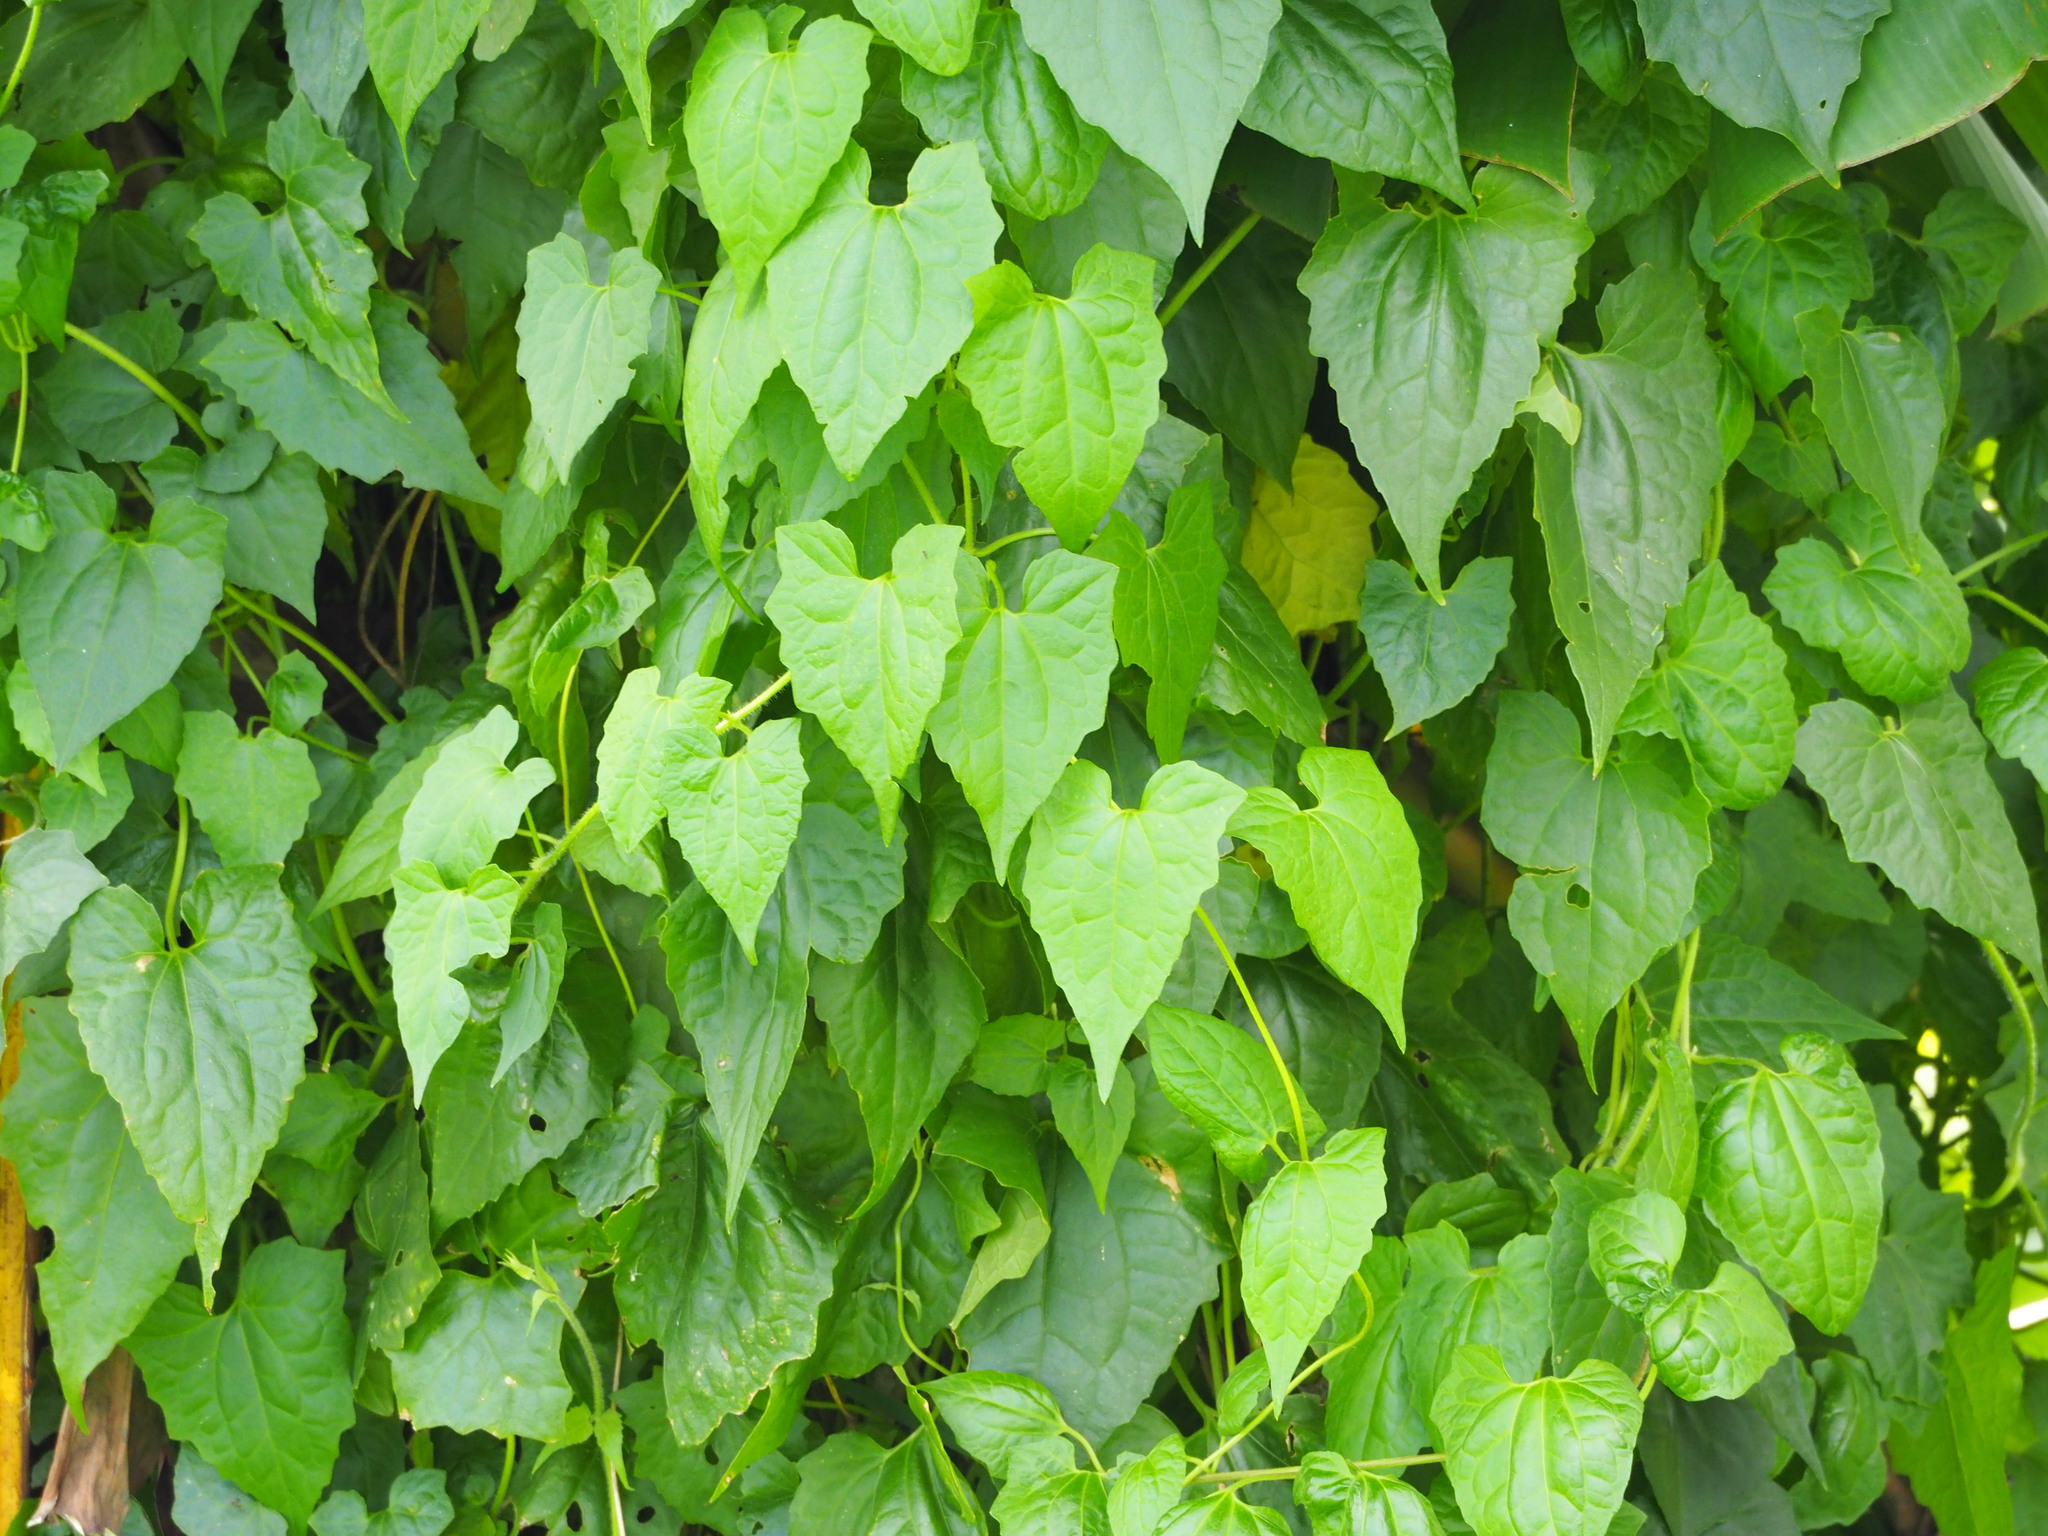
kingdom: Plantae
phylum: Tracheophyta
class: Magnoliopsida
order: Asterales
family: Asteraceae
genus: Mikania
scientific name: Mikania micrantha
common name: Mile-a-minute
